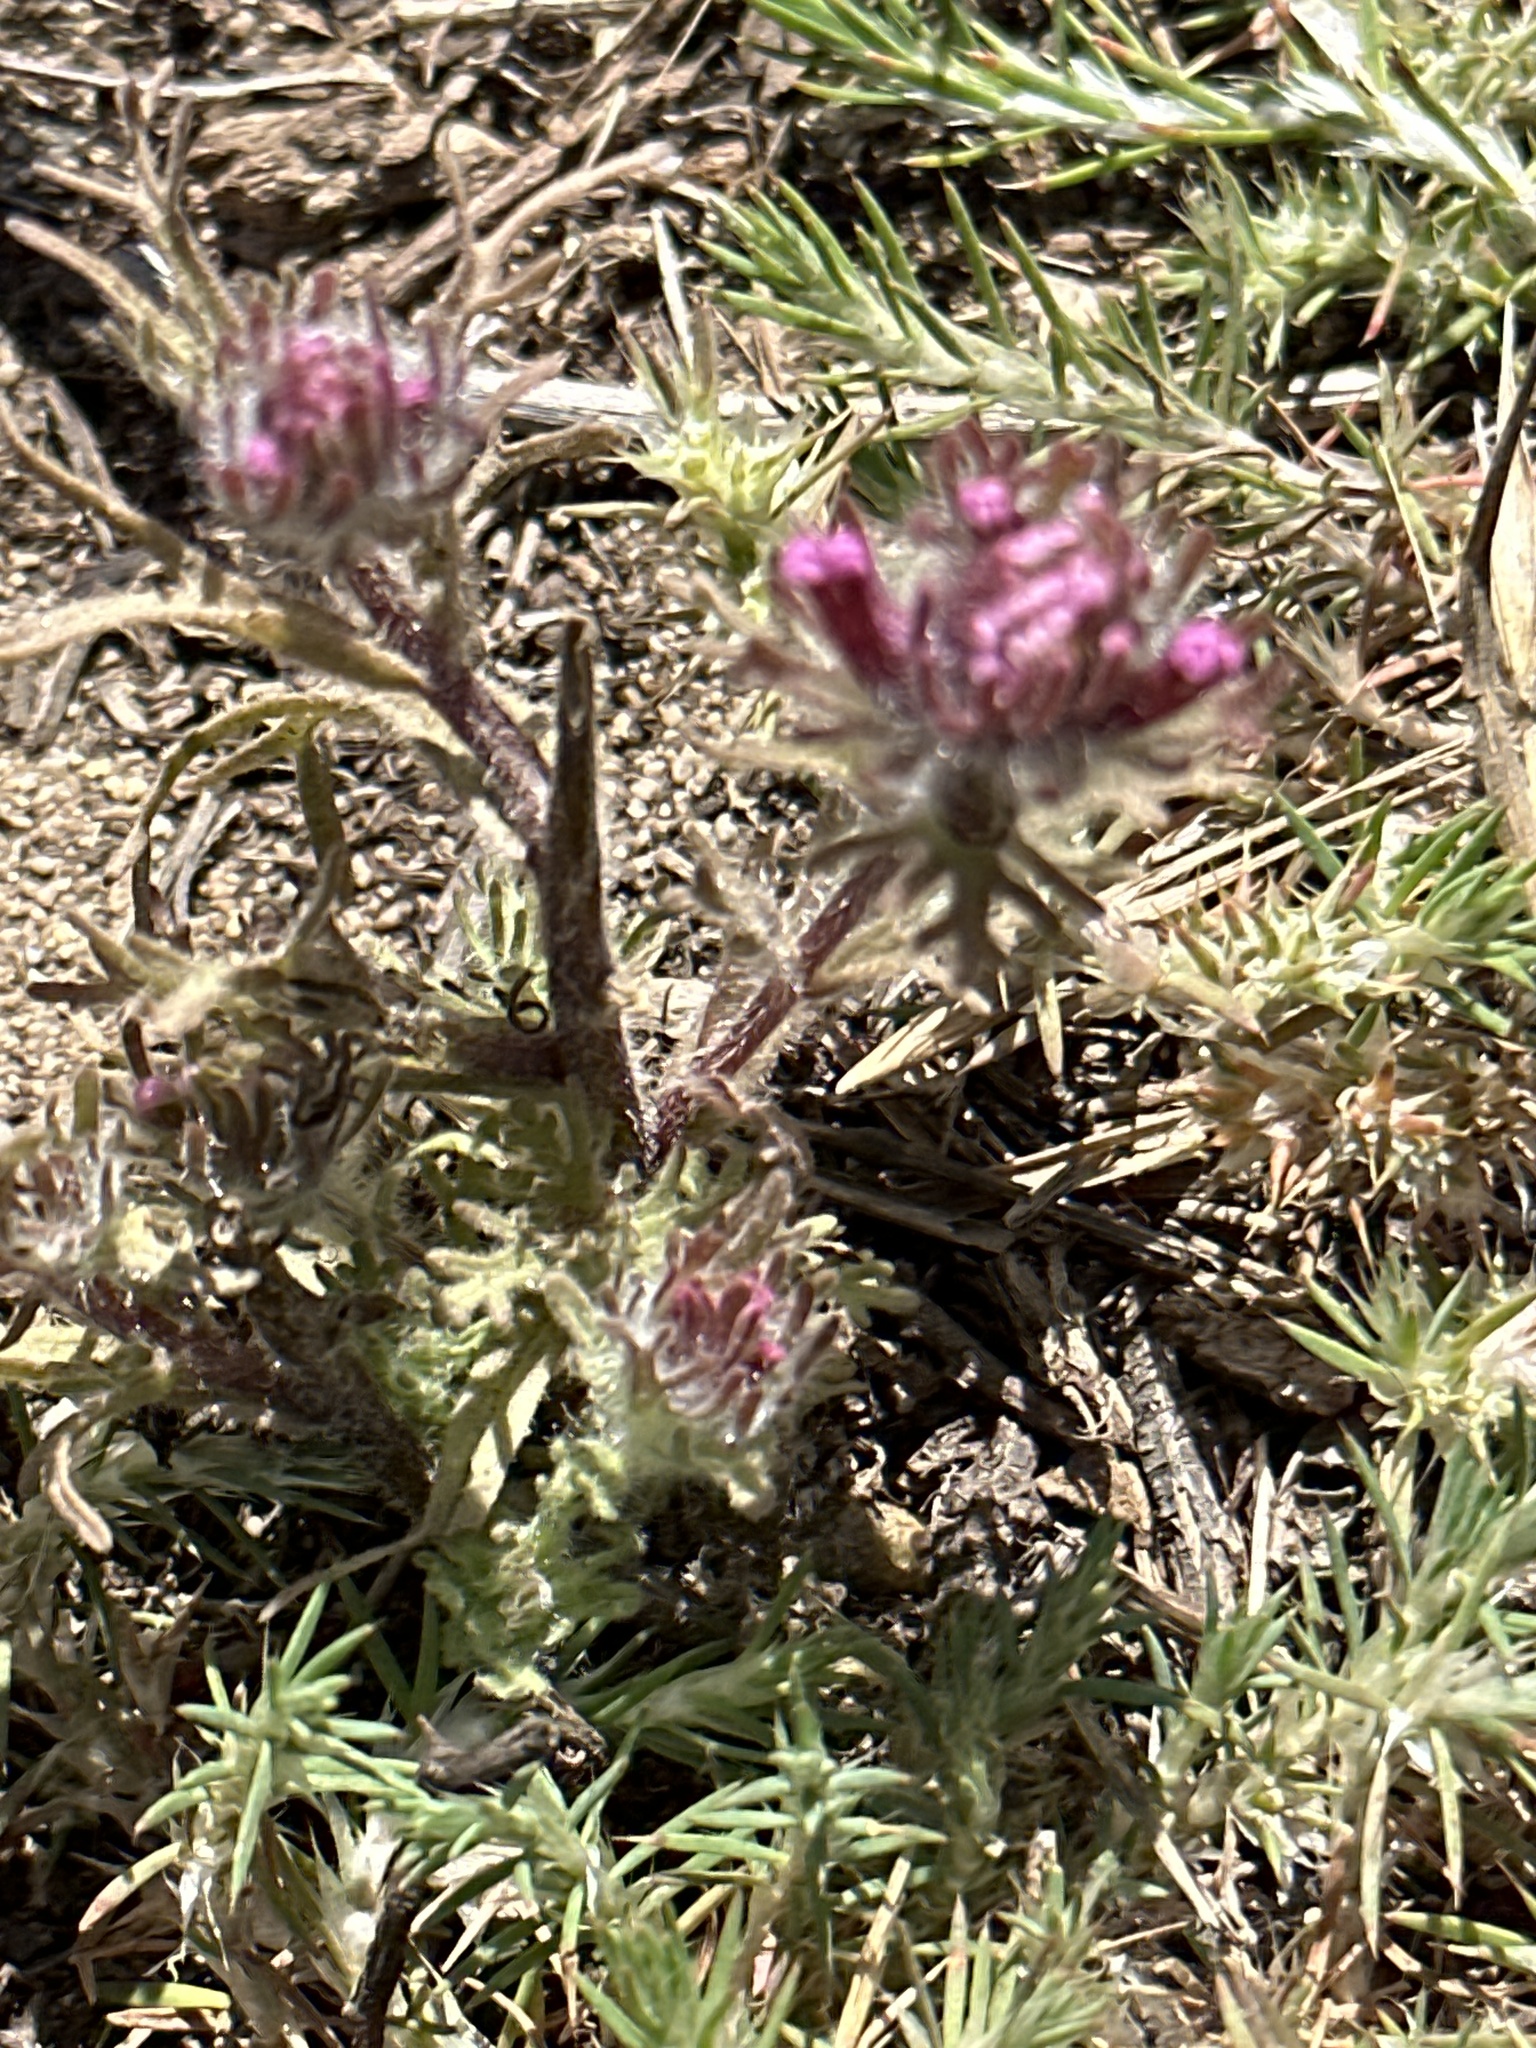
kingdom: Plantae
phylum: Tracheophyta
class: Magnoliopsida
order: Lamiales
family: Orobanchaceae
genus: Castilleja
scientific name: Castilleja exserta
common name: Purple owl-clover
